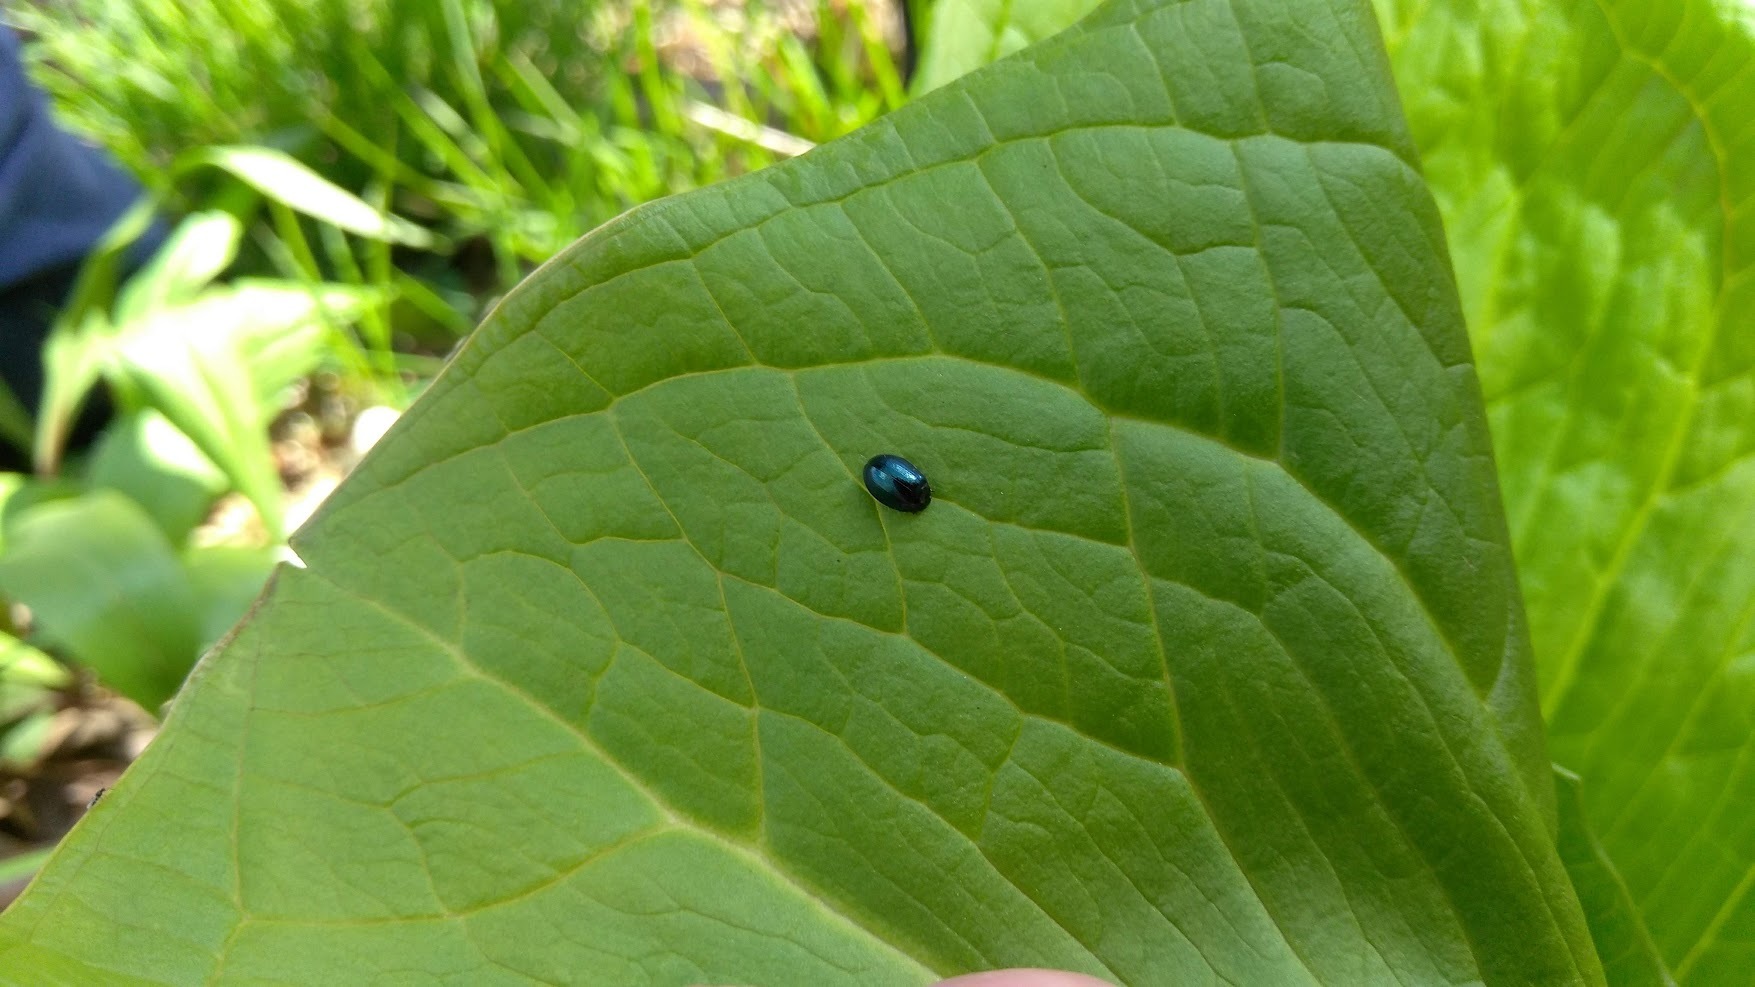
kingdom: Animalia
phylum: Arthropoda
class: Insecta
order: Coleoptera
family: Chrysomelidae
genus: Plagiodera
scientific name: Plagiodera versicolora
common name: Imported willow leaf beetle
